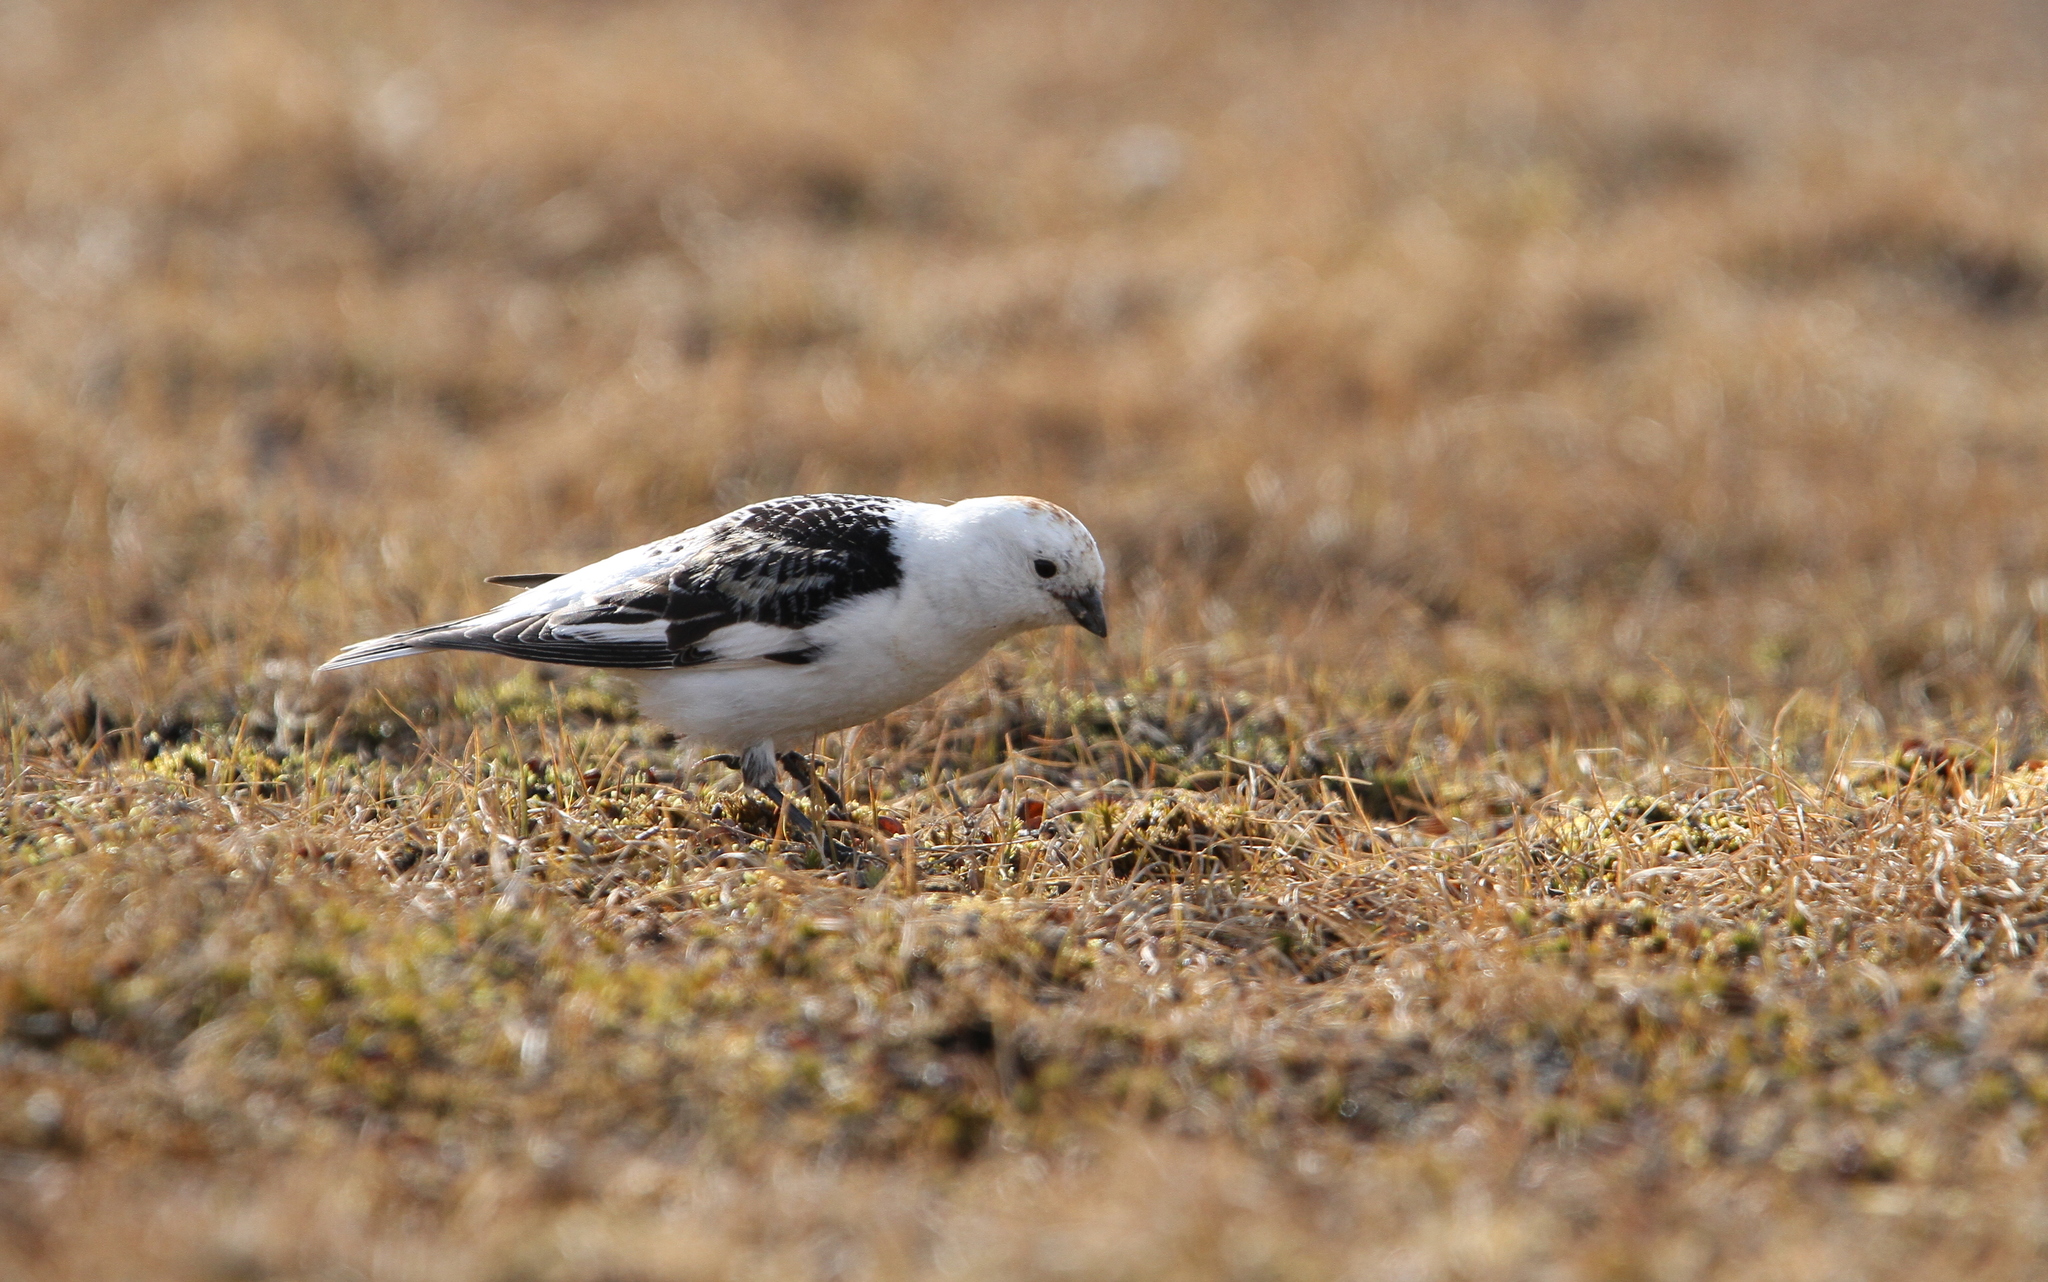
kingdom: Animalia
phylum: Chordata
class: Aves
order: Passeriformes
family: Calcariidae
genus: Plectrophenax
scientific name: Plectrophenax nivalis
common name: Snow bunting
